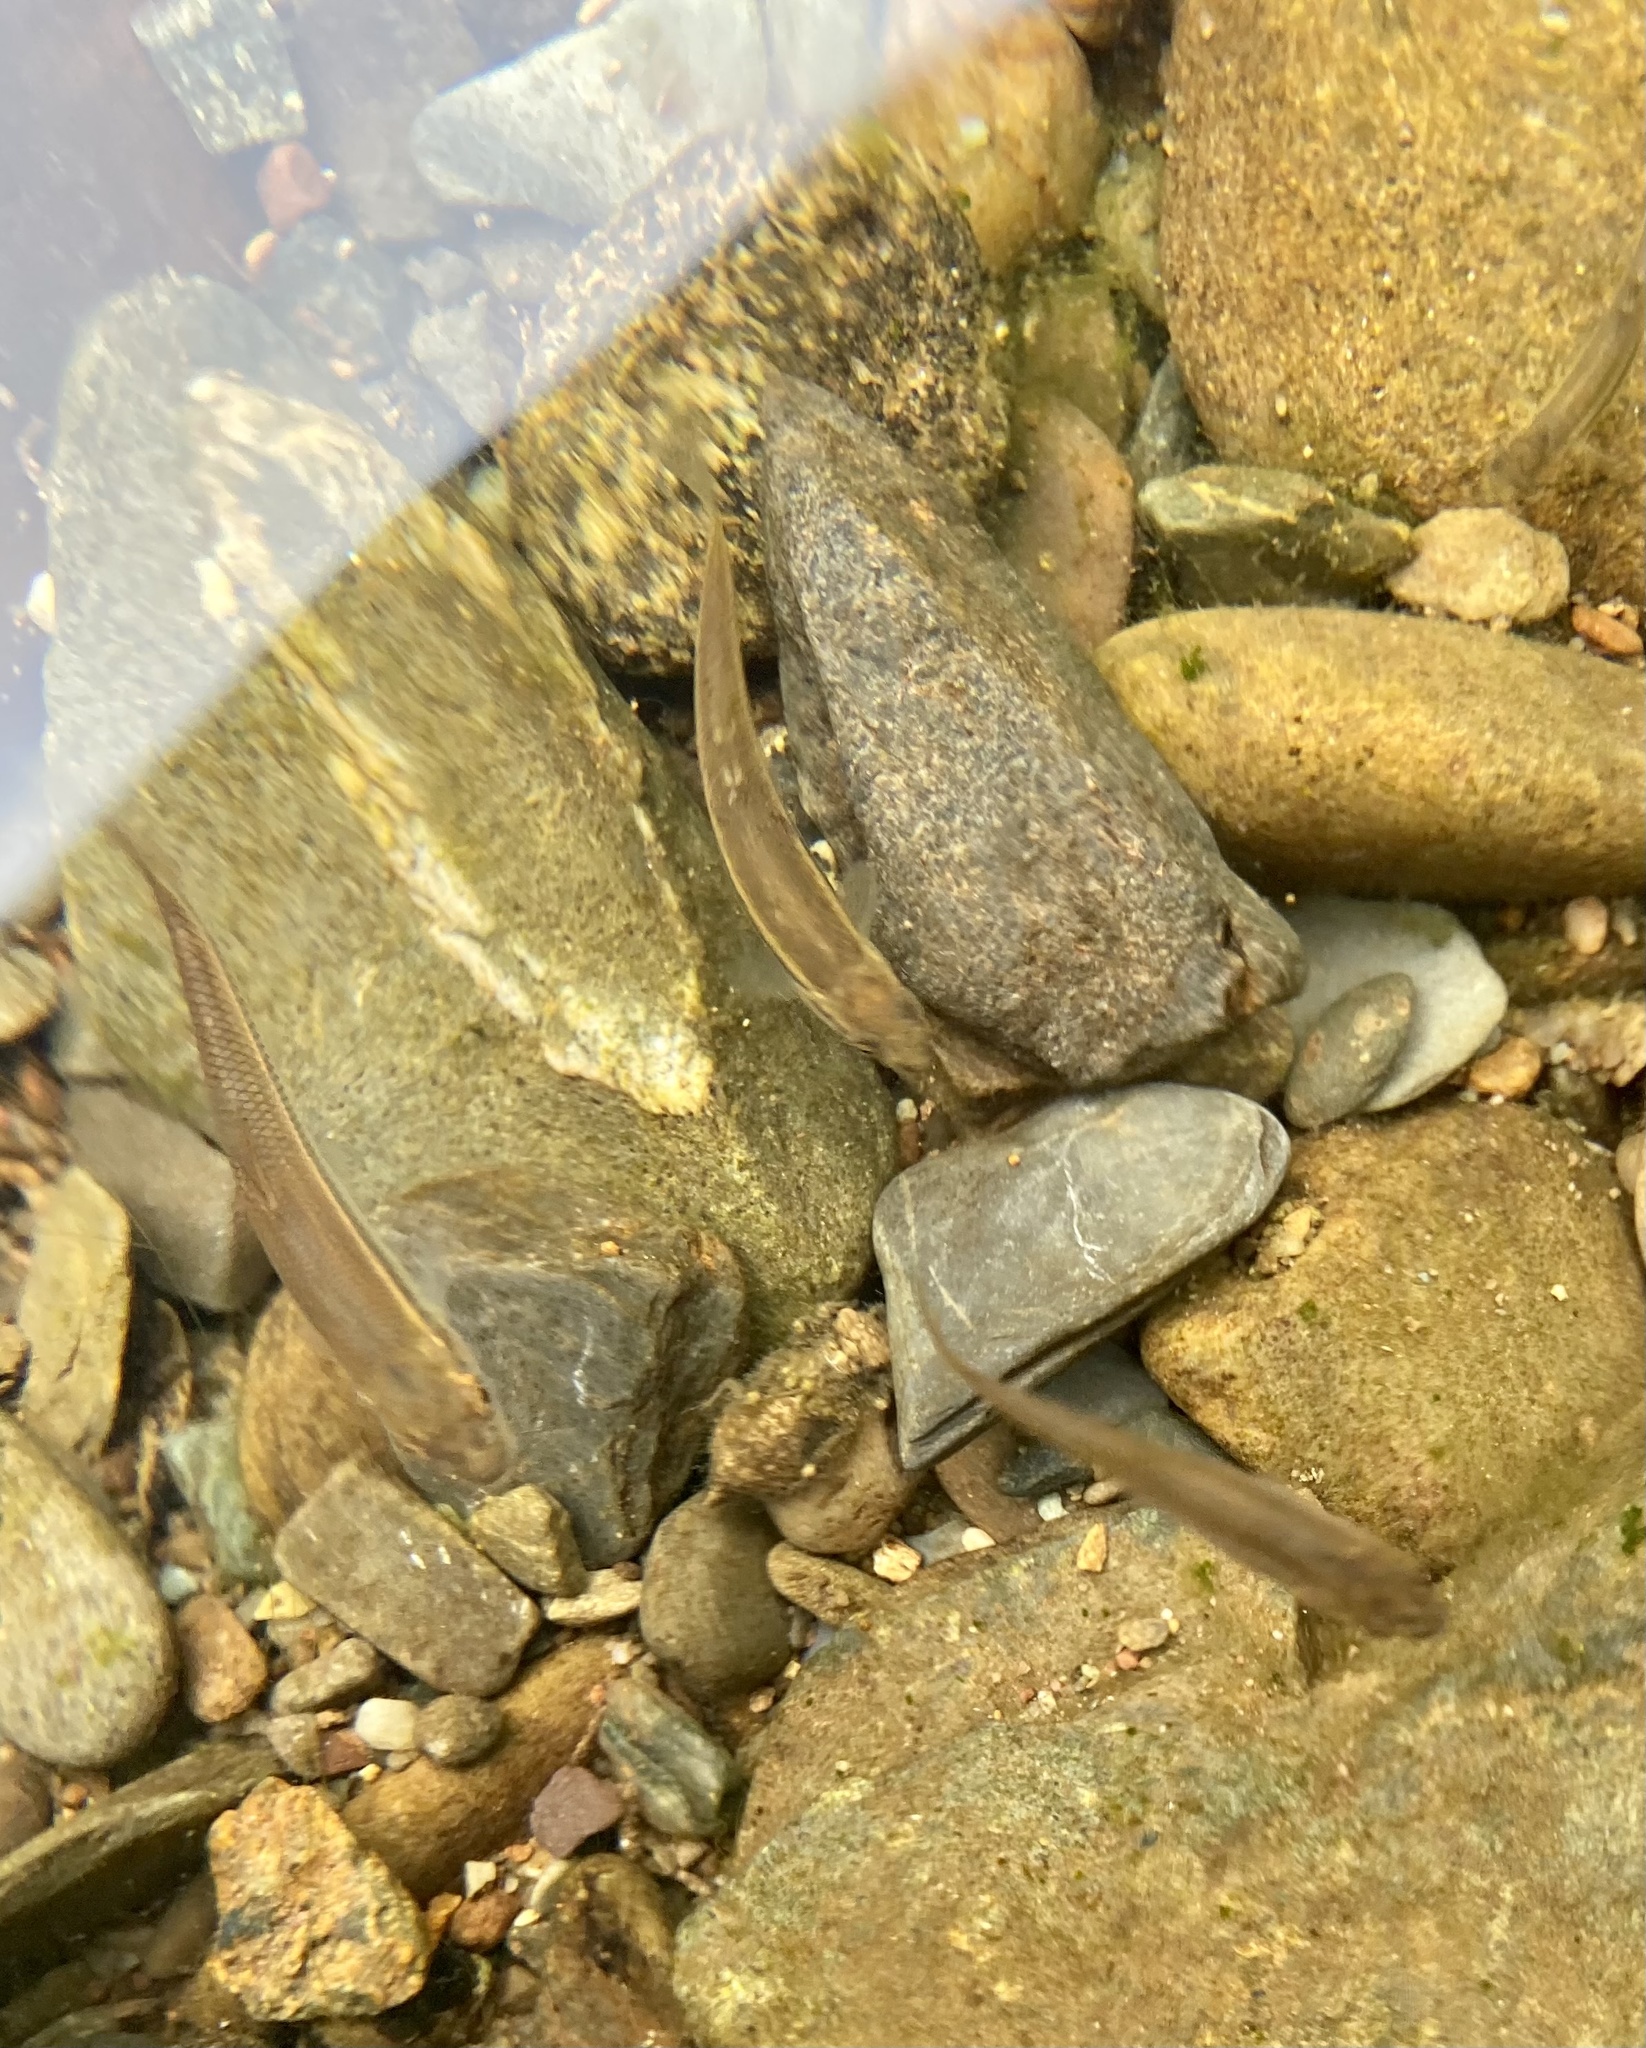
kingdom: Animalia
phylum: Chordata
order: Cypriniformes
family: Cyprinidae
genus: Rhinichthys
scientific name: Rhinichthys atratulus
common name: Eastern blacknose dace
